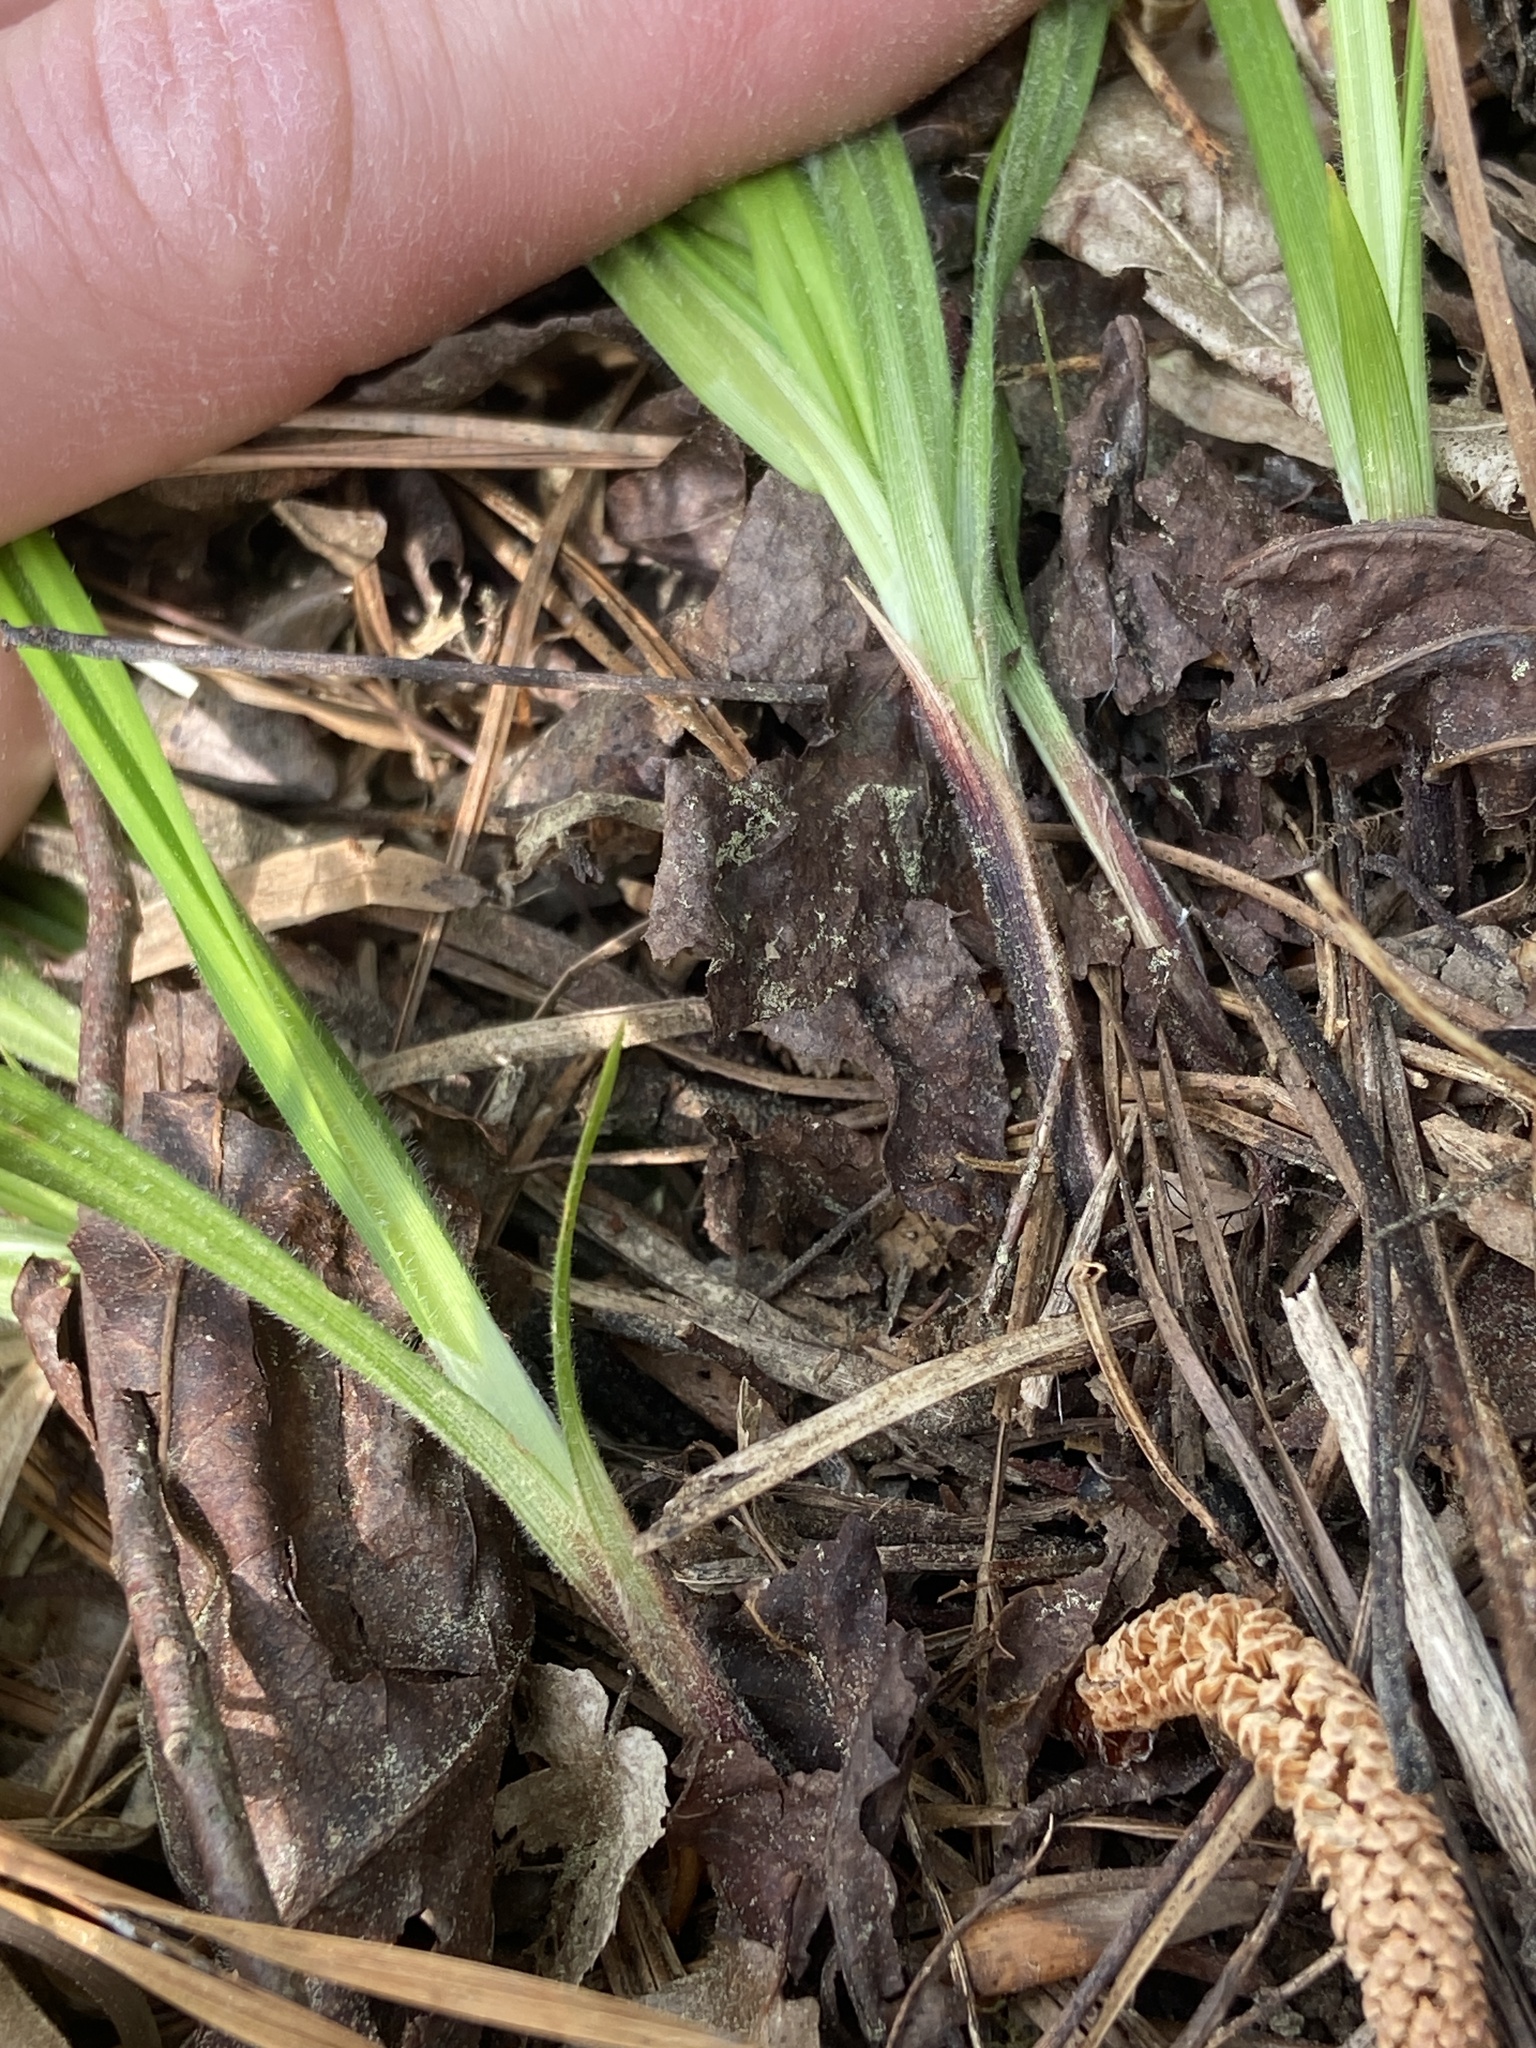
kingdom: Plantae
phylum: Tracheophyta
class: Liliopsida
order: Poales
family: Cyperaceae
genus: Carex
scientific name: Carex oxylepis
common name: Sharpscale sedge
